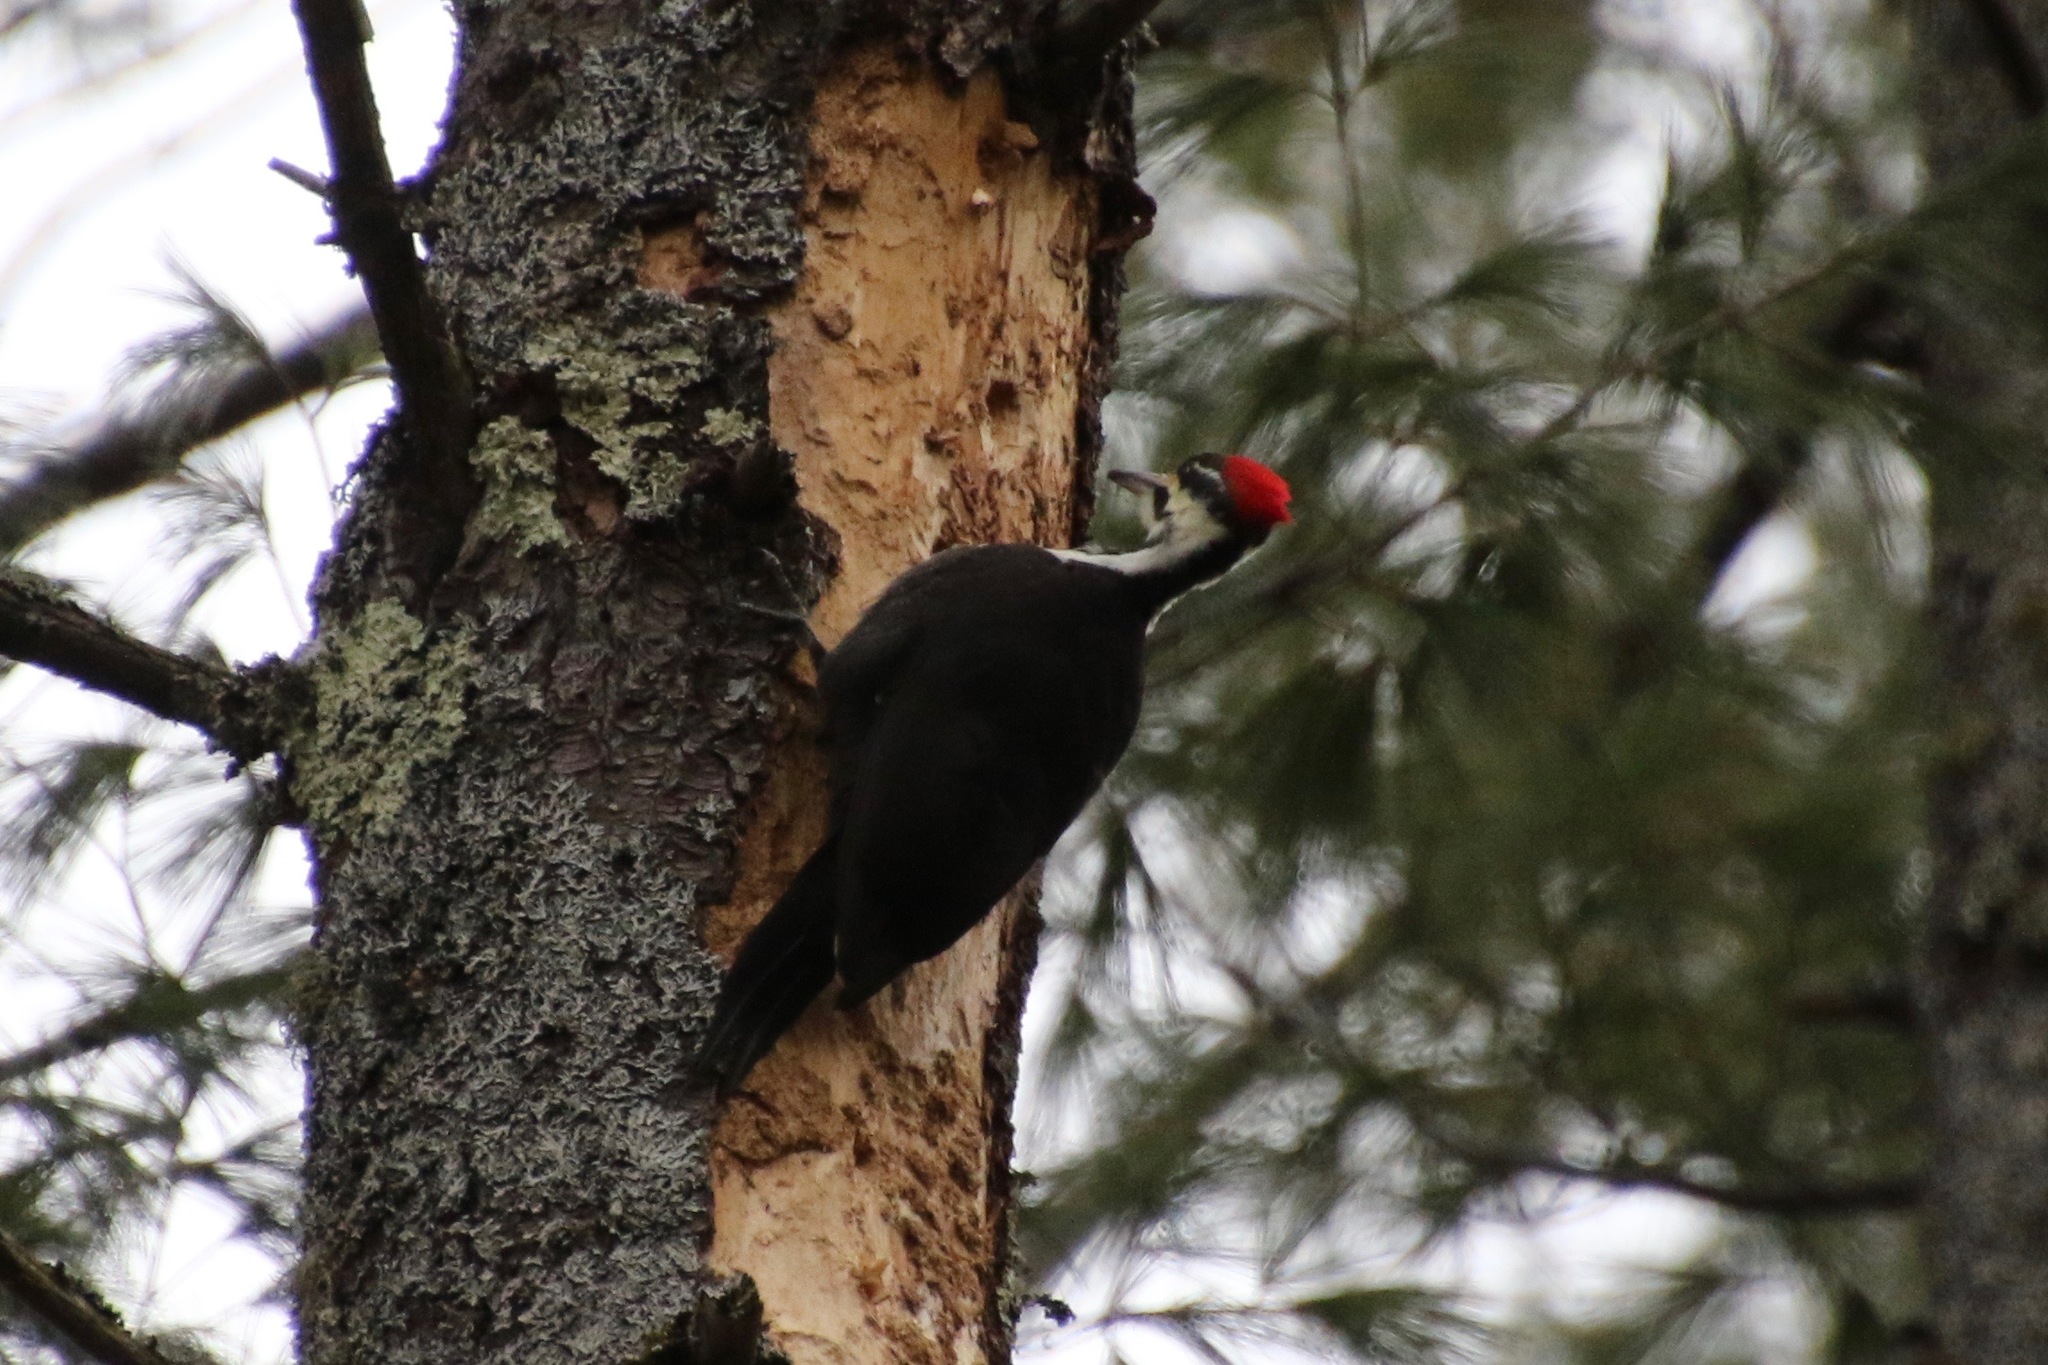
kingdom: Animalia
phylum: Chordata
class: Aves
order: Piciformes
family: Picidae
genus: Dryocopus
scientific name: Dryocopus pileatus
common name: Pileated woodpecker
